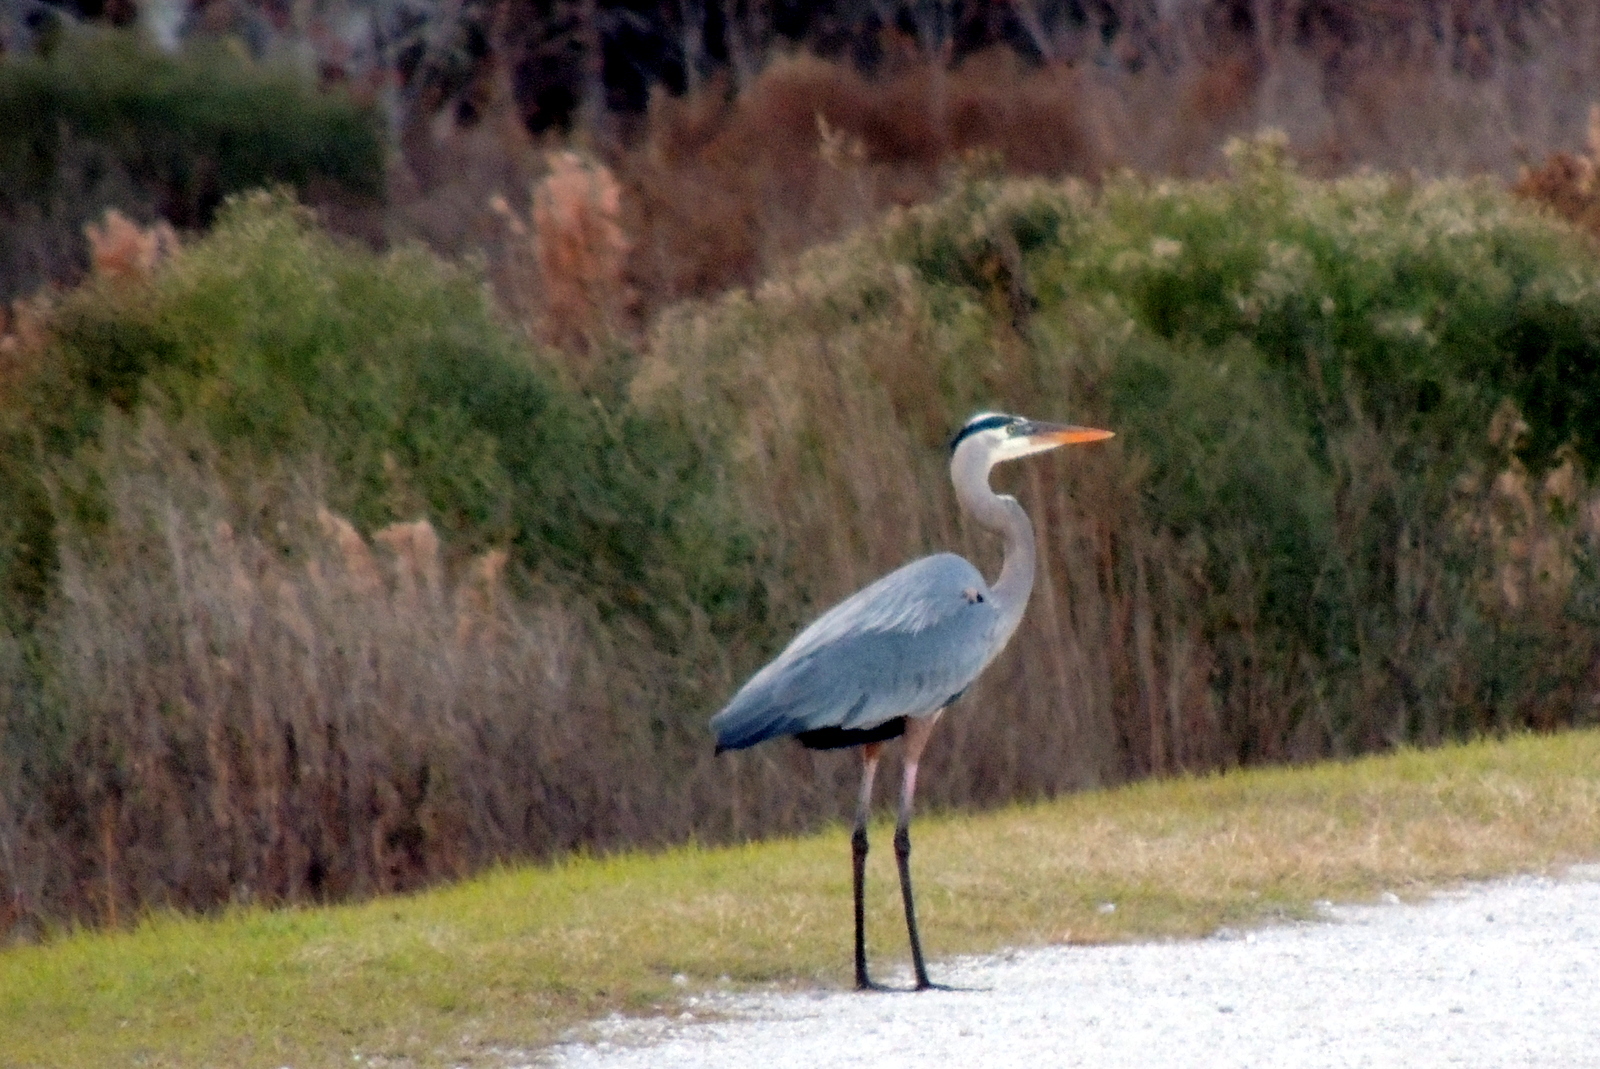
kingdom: Animalia
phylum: Chordata
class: Aves
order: Pelecaniformes
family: Ardeidae
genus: Ardea
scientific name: Ardea herodias
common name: Great blue heron
